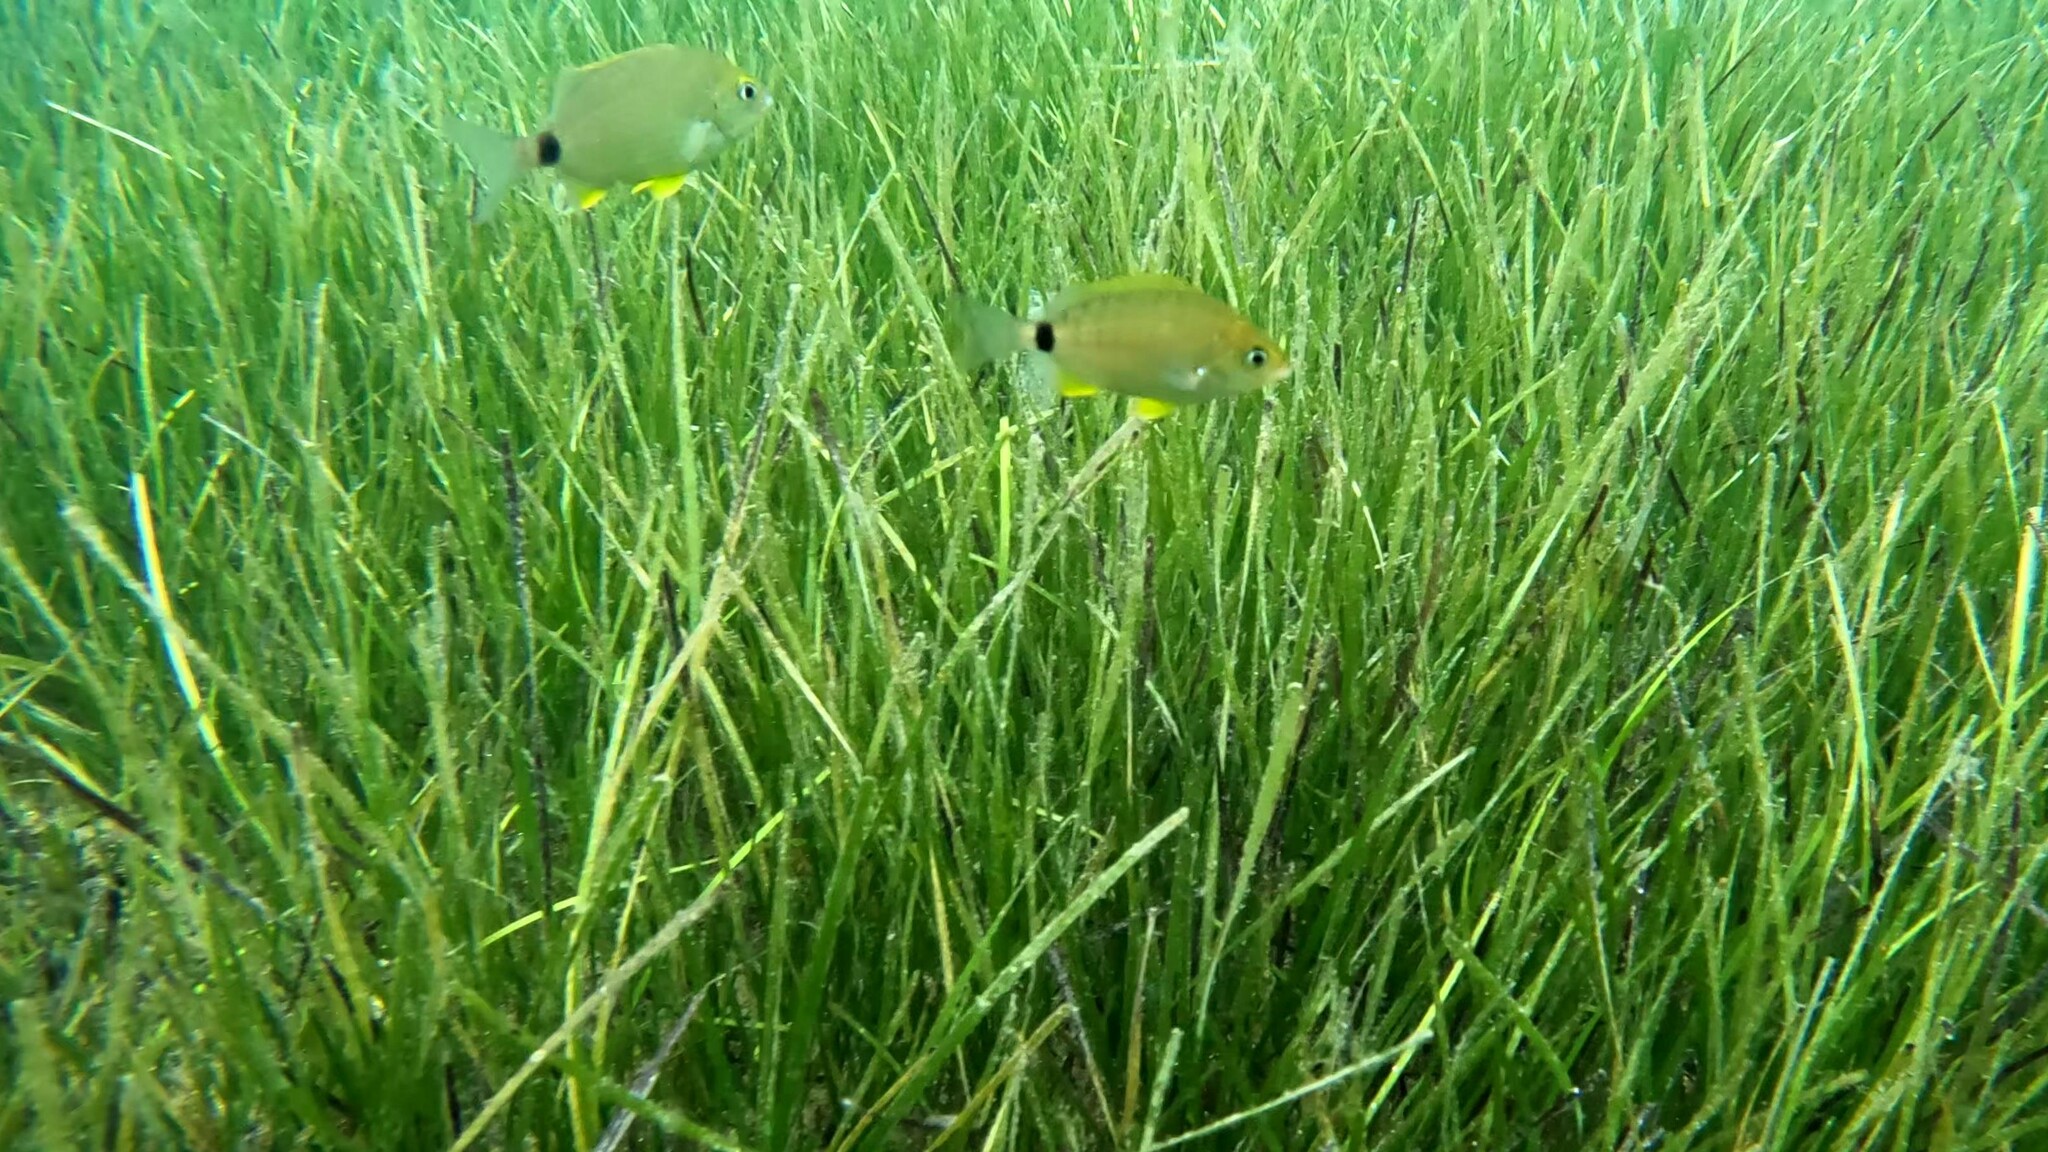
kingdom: Animalia
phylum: Chordata
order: Perciformes
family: Sparidae
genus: Diplodus
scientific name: Diplodus annularis
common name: Annular seabream
